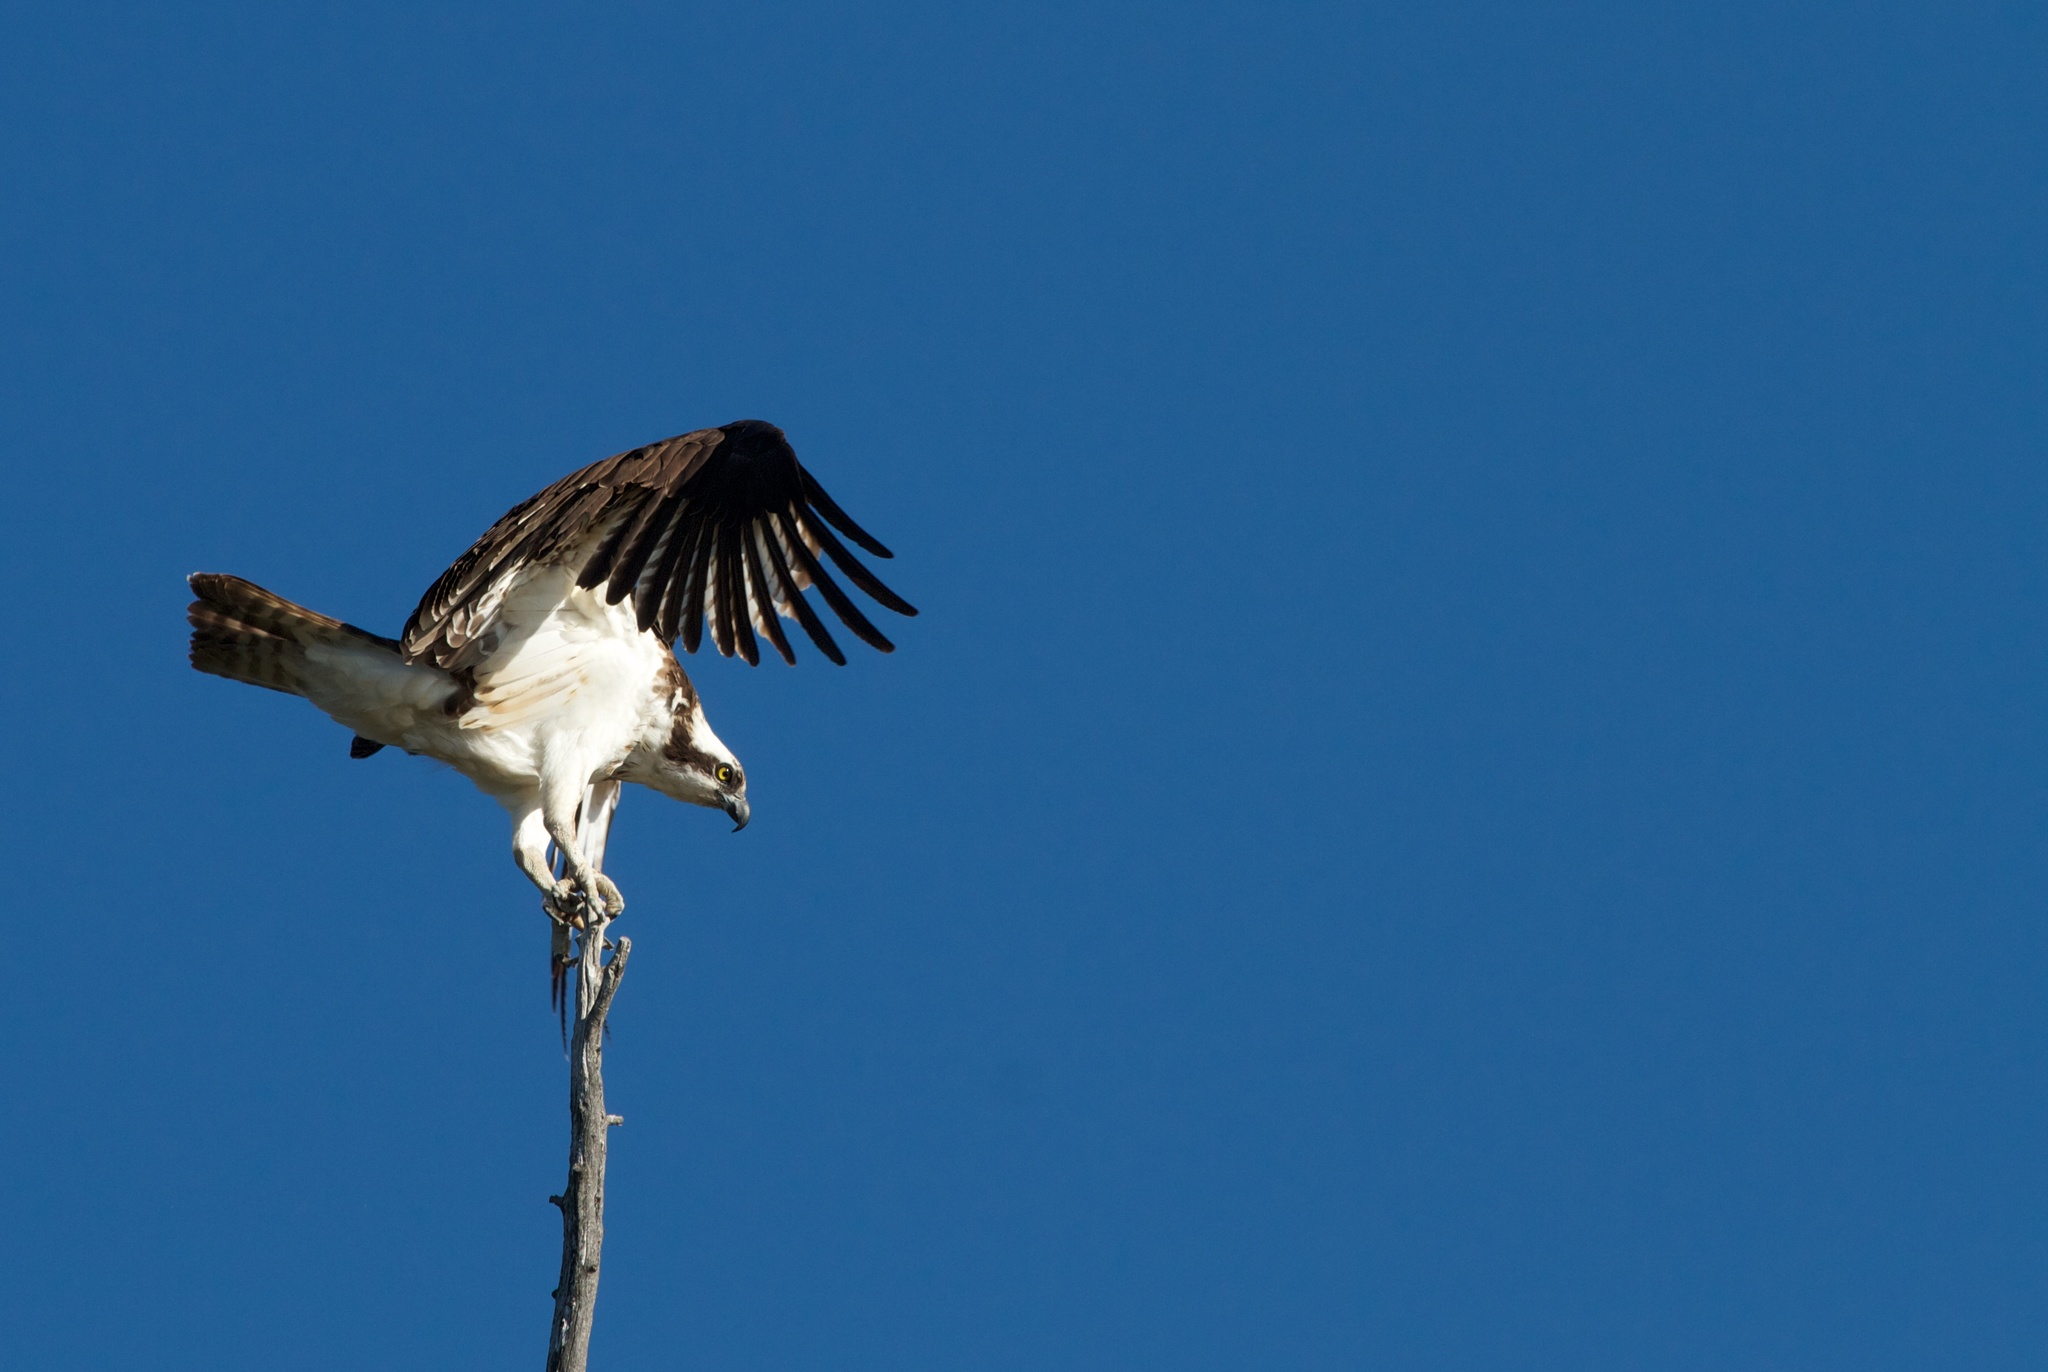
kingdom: Animalia
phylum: Chordata
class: Aves
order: Accipitriformes
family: Pandionidae
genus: Pandion
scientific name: Pandion haliaetus
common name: Osprey
